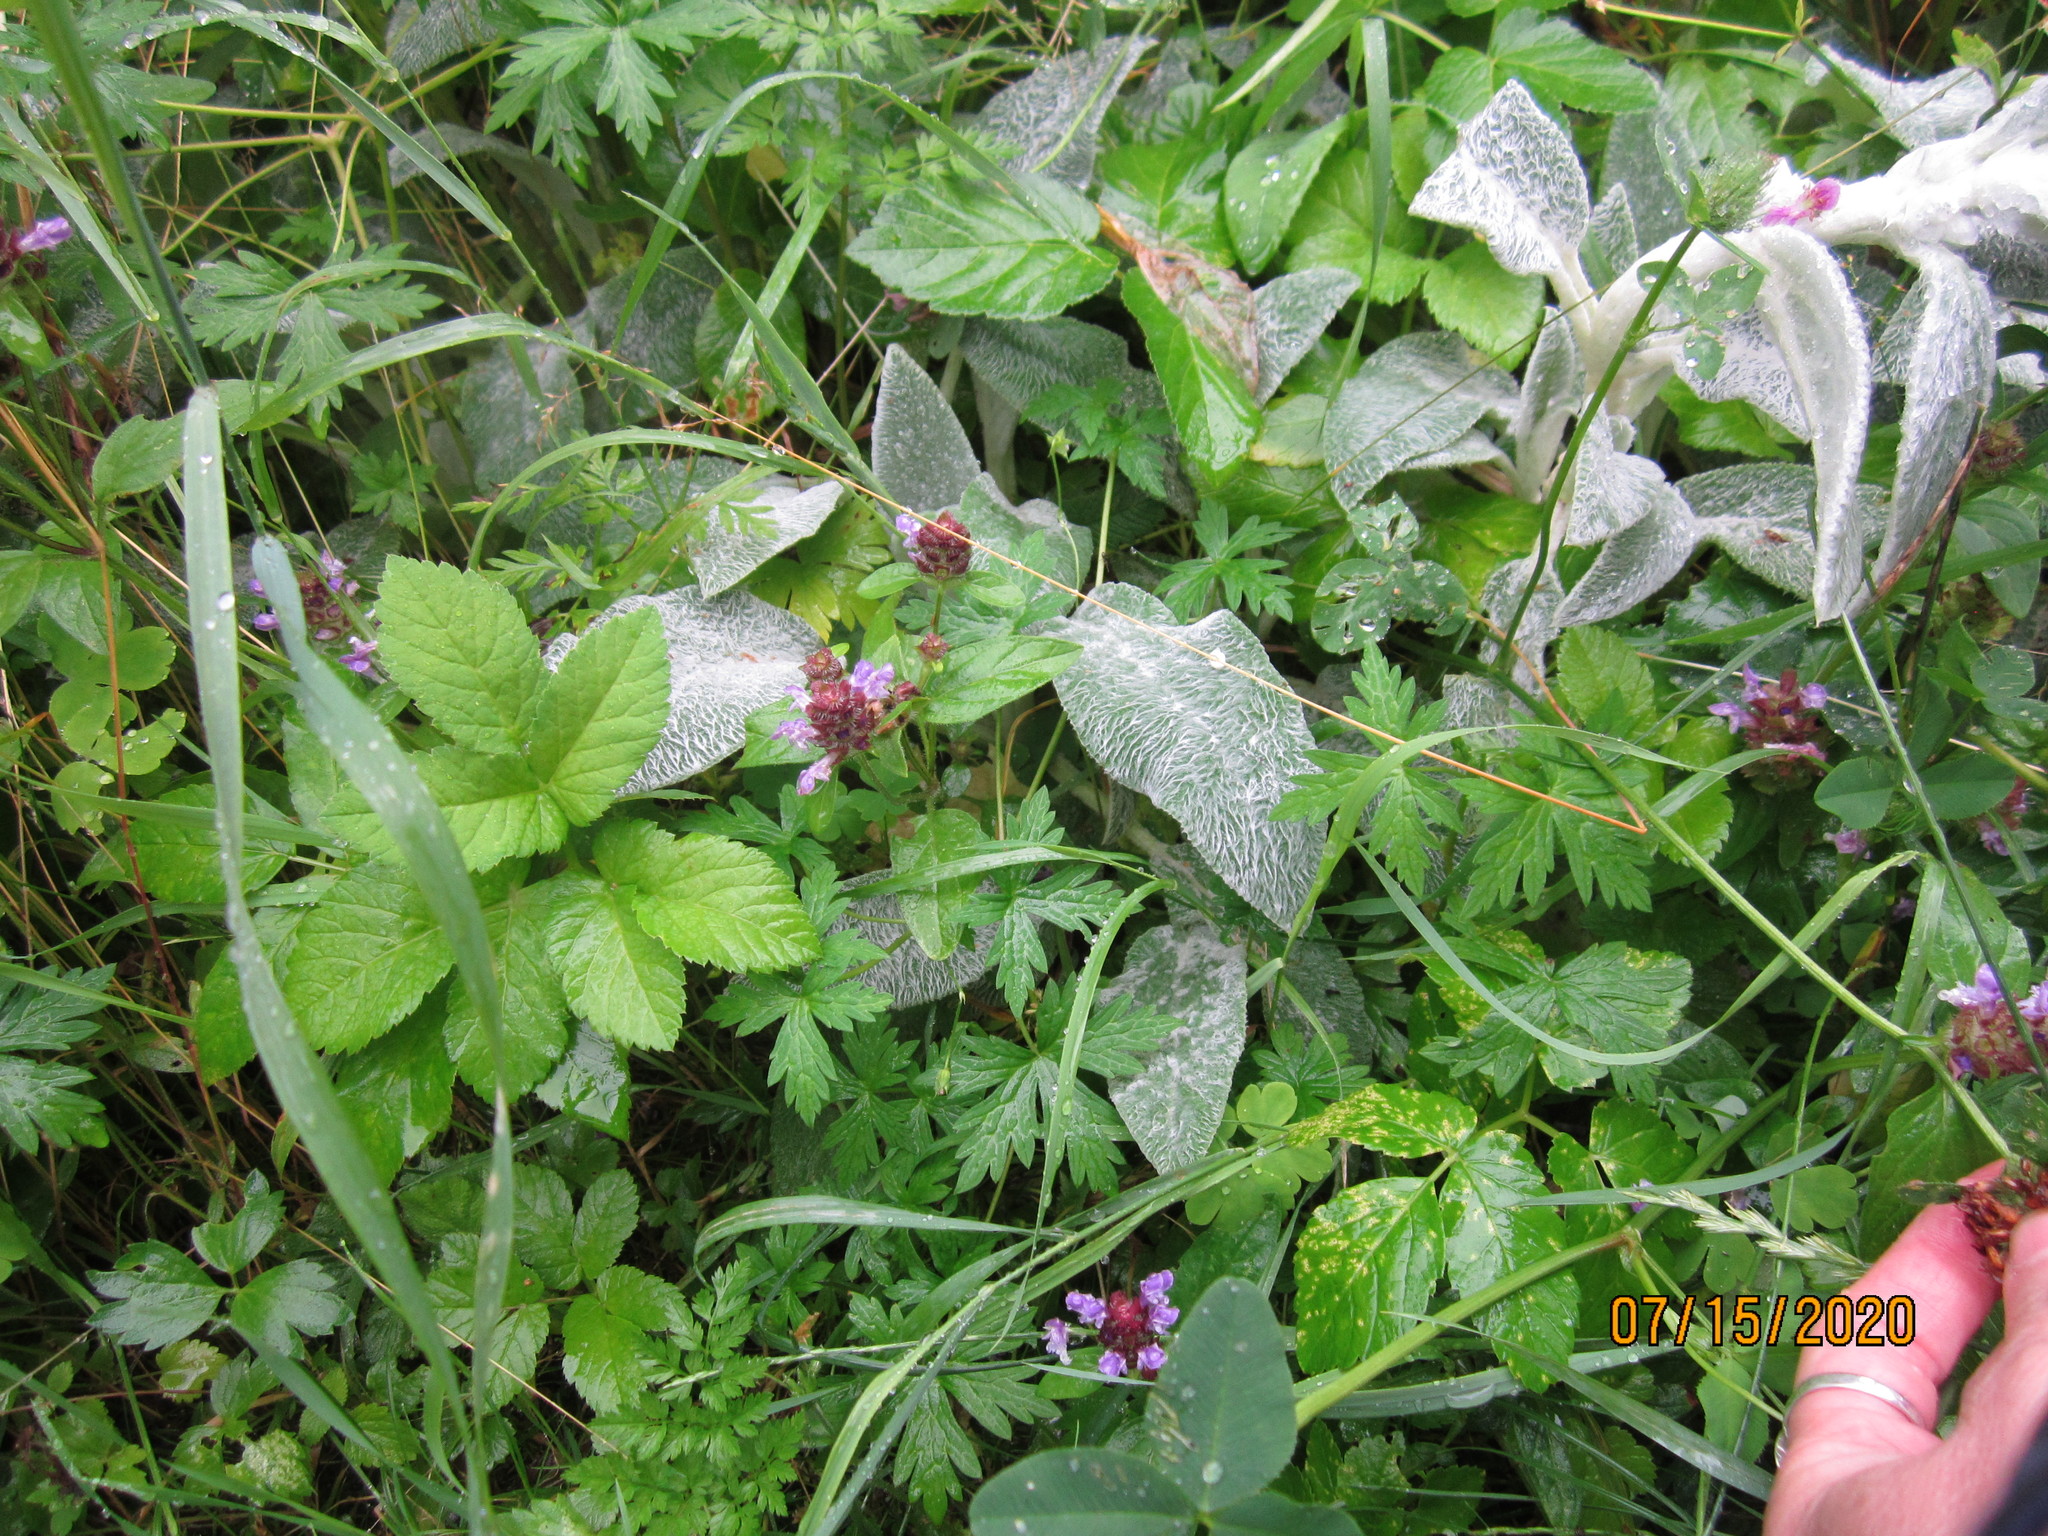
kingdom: Plantae
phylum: Tracheophyta
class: Magnoliopsida
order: Lamiales
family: Lamiaceae
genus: Prunella
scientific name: Prunella vulgaris
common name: Heal-all
